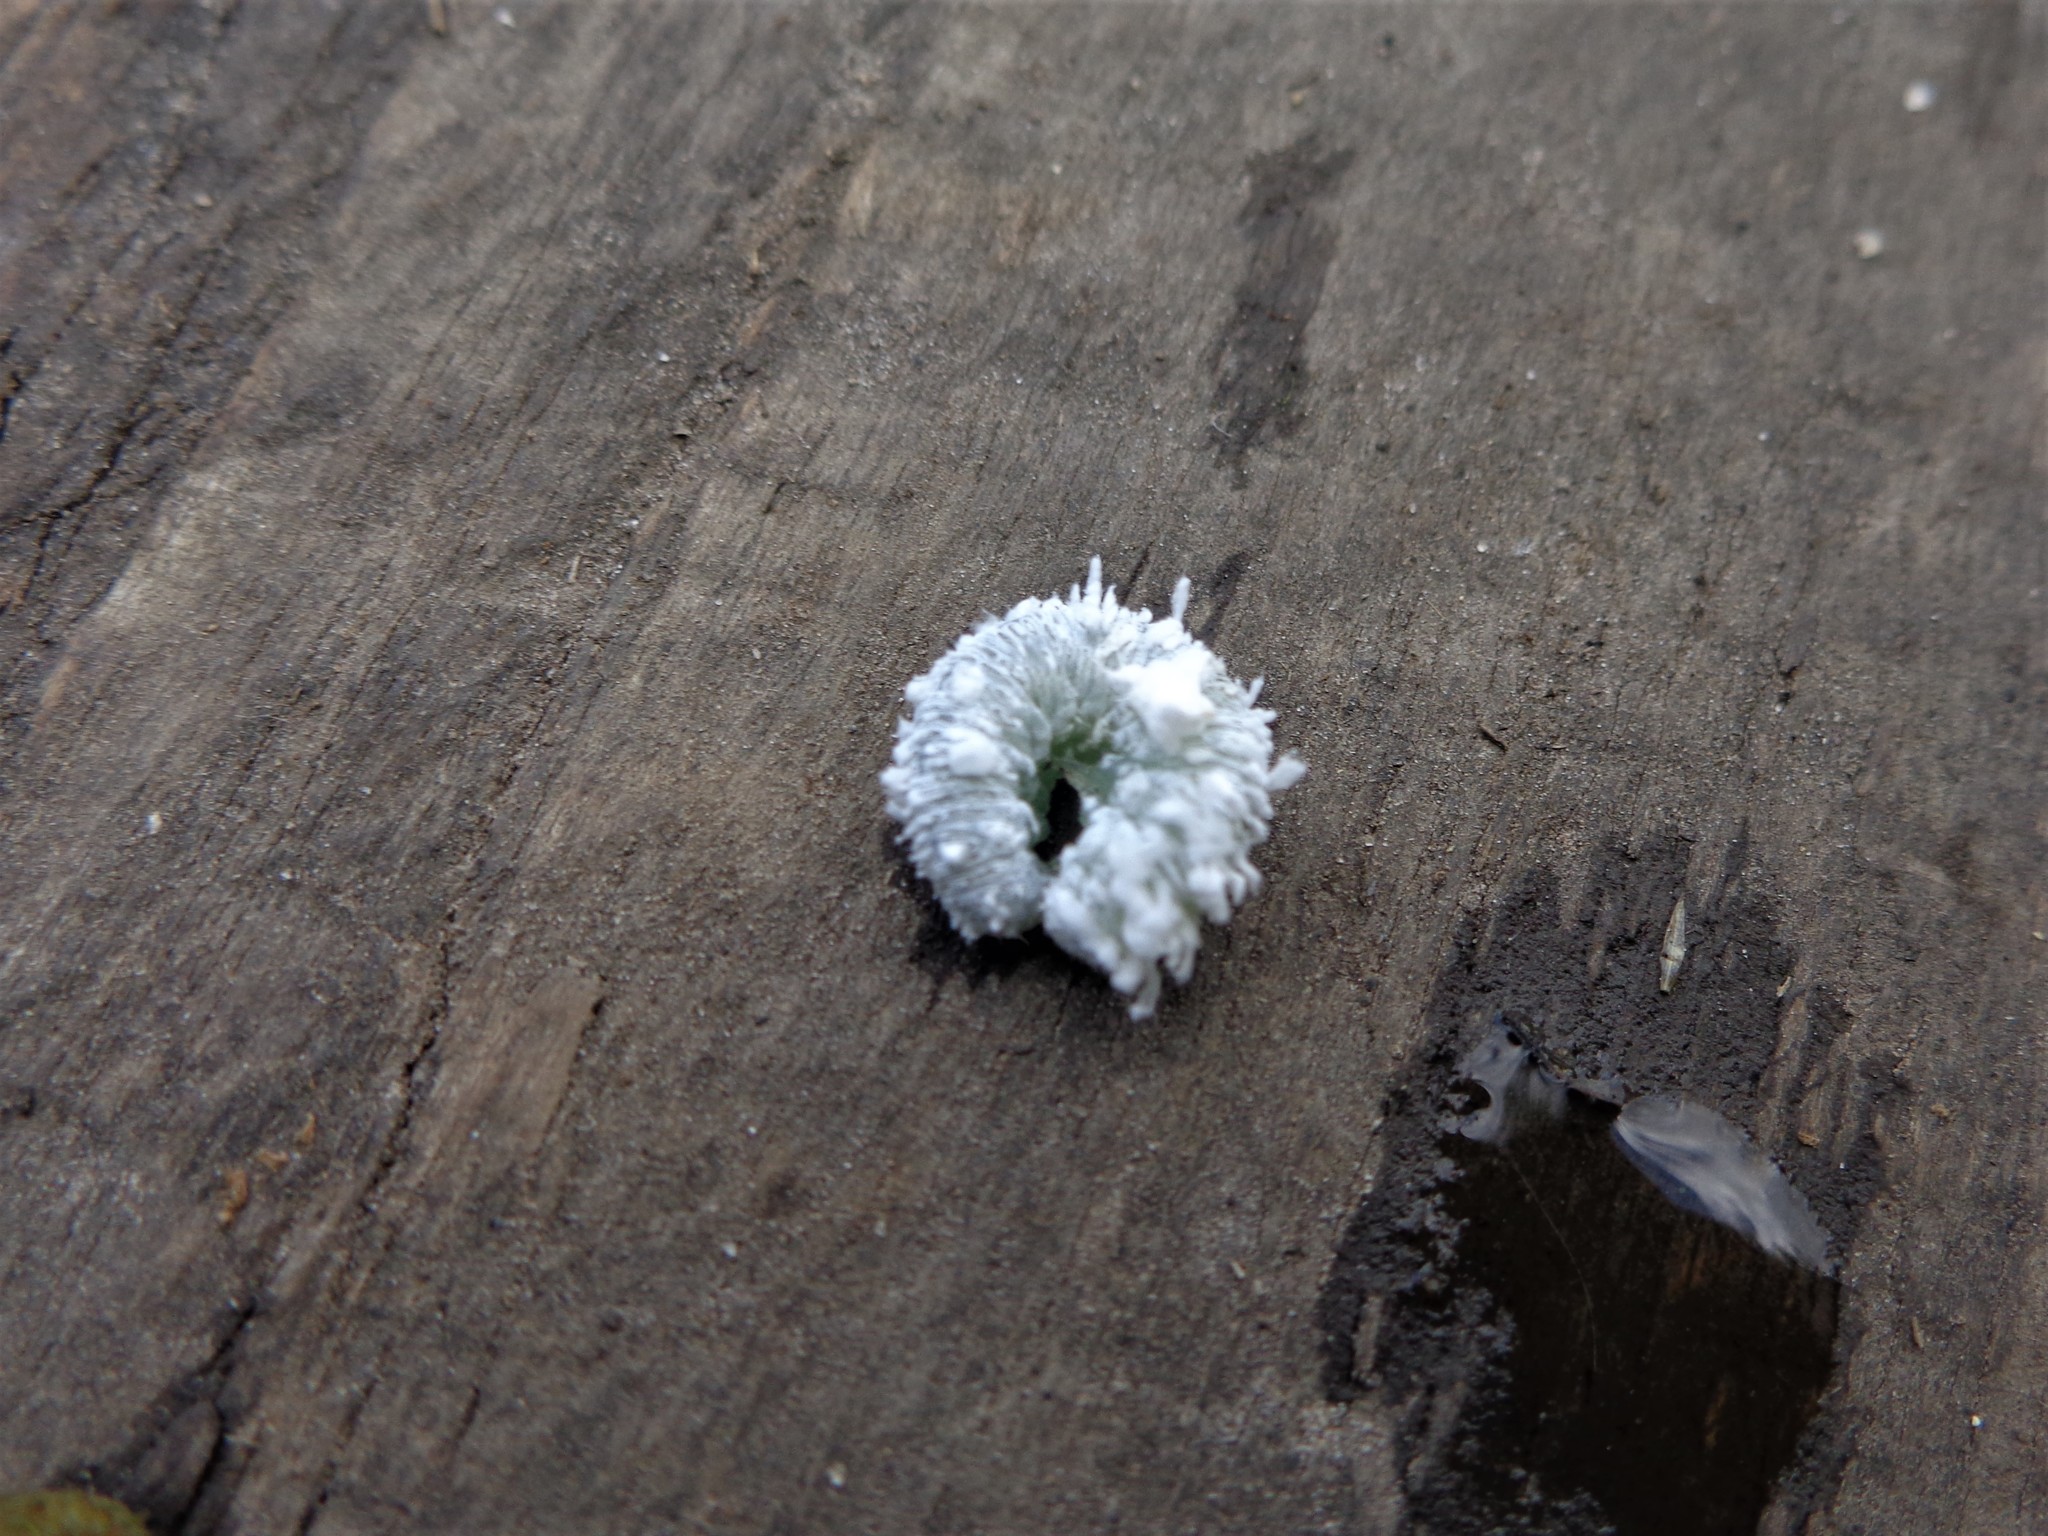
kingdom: Animalia
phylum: Arthropoda
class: Insecta
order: Hymenoptera
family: Tenthredinidae
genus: Eriocampa
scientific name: Eriocampa ovata
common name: Alder wooly sawfly
